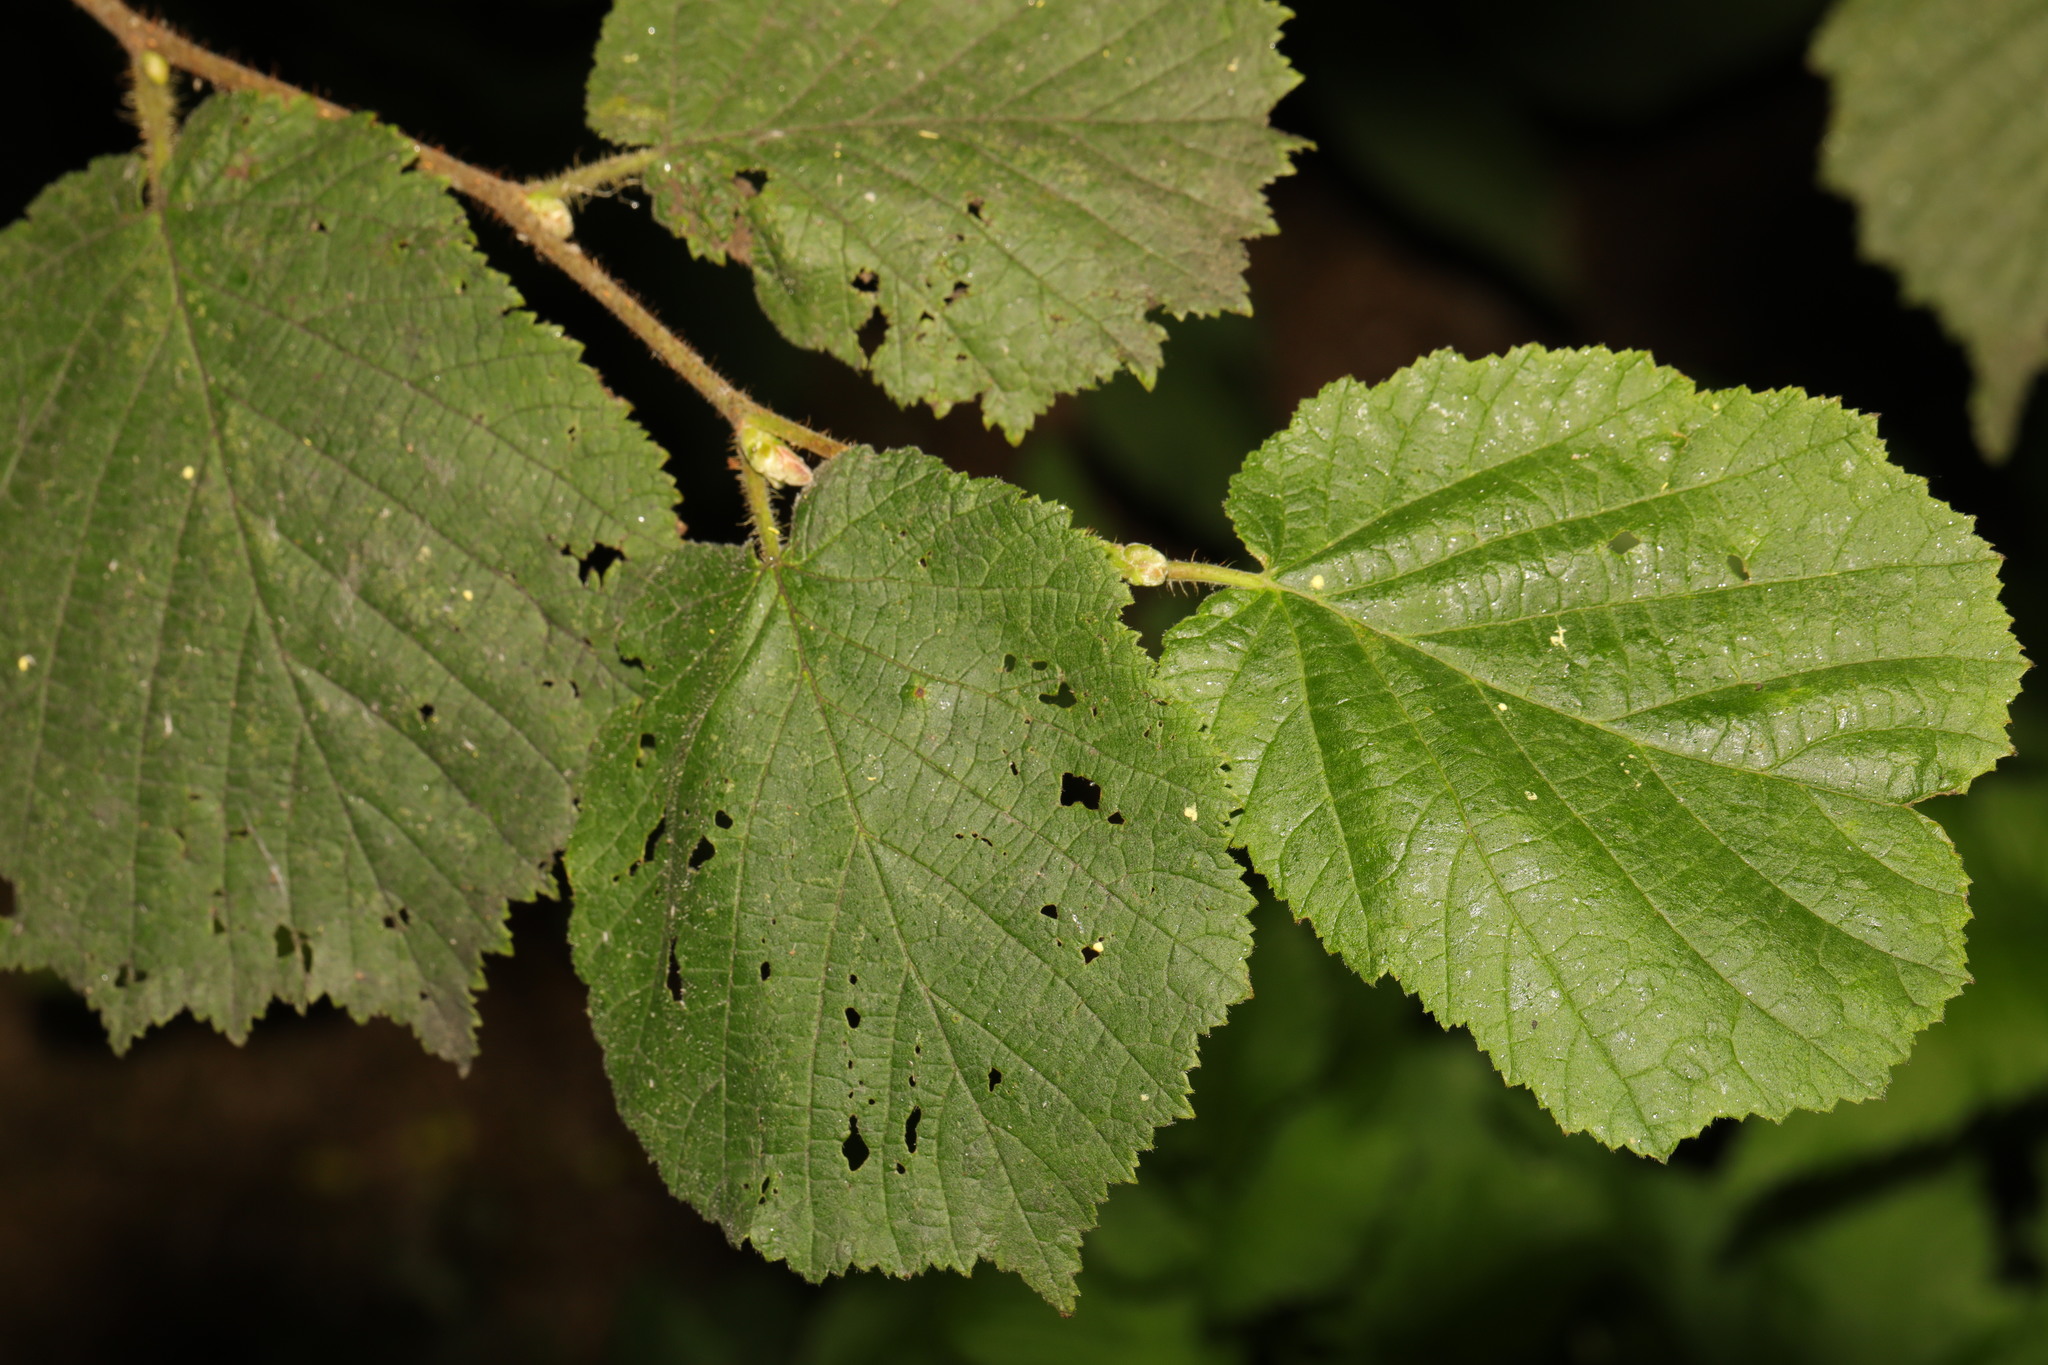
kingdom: Plantae
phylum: Tracheophyta
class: Magnoliopsida
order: Fagales
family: Betulaceae
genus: Corylus
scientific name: Corylus avellana
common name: European hazel
